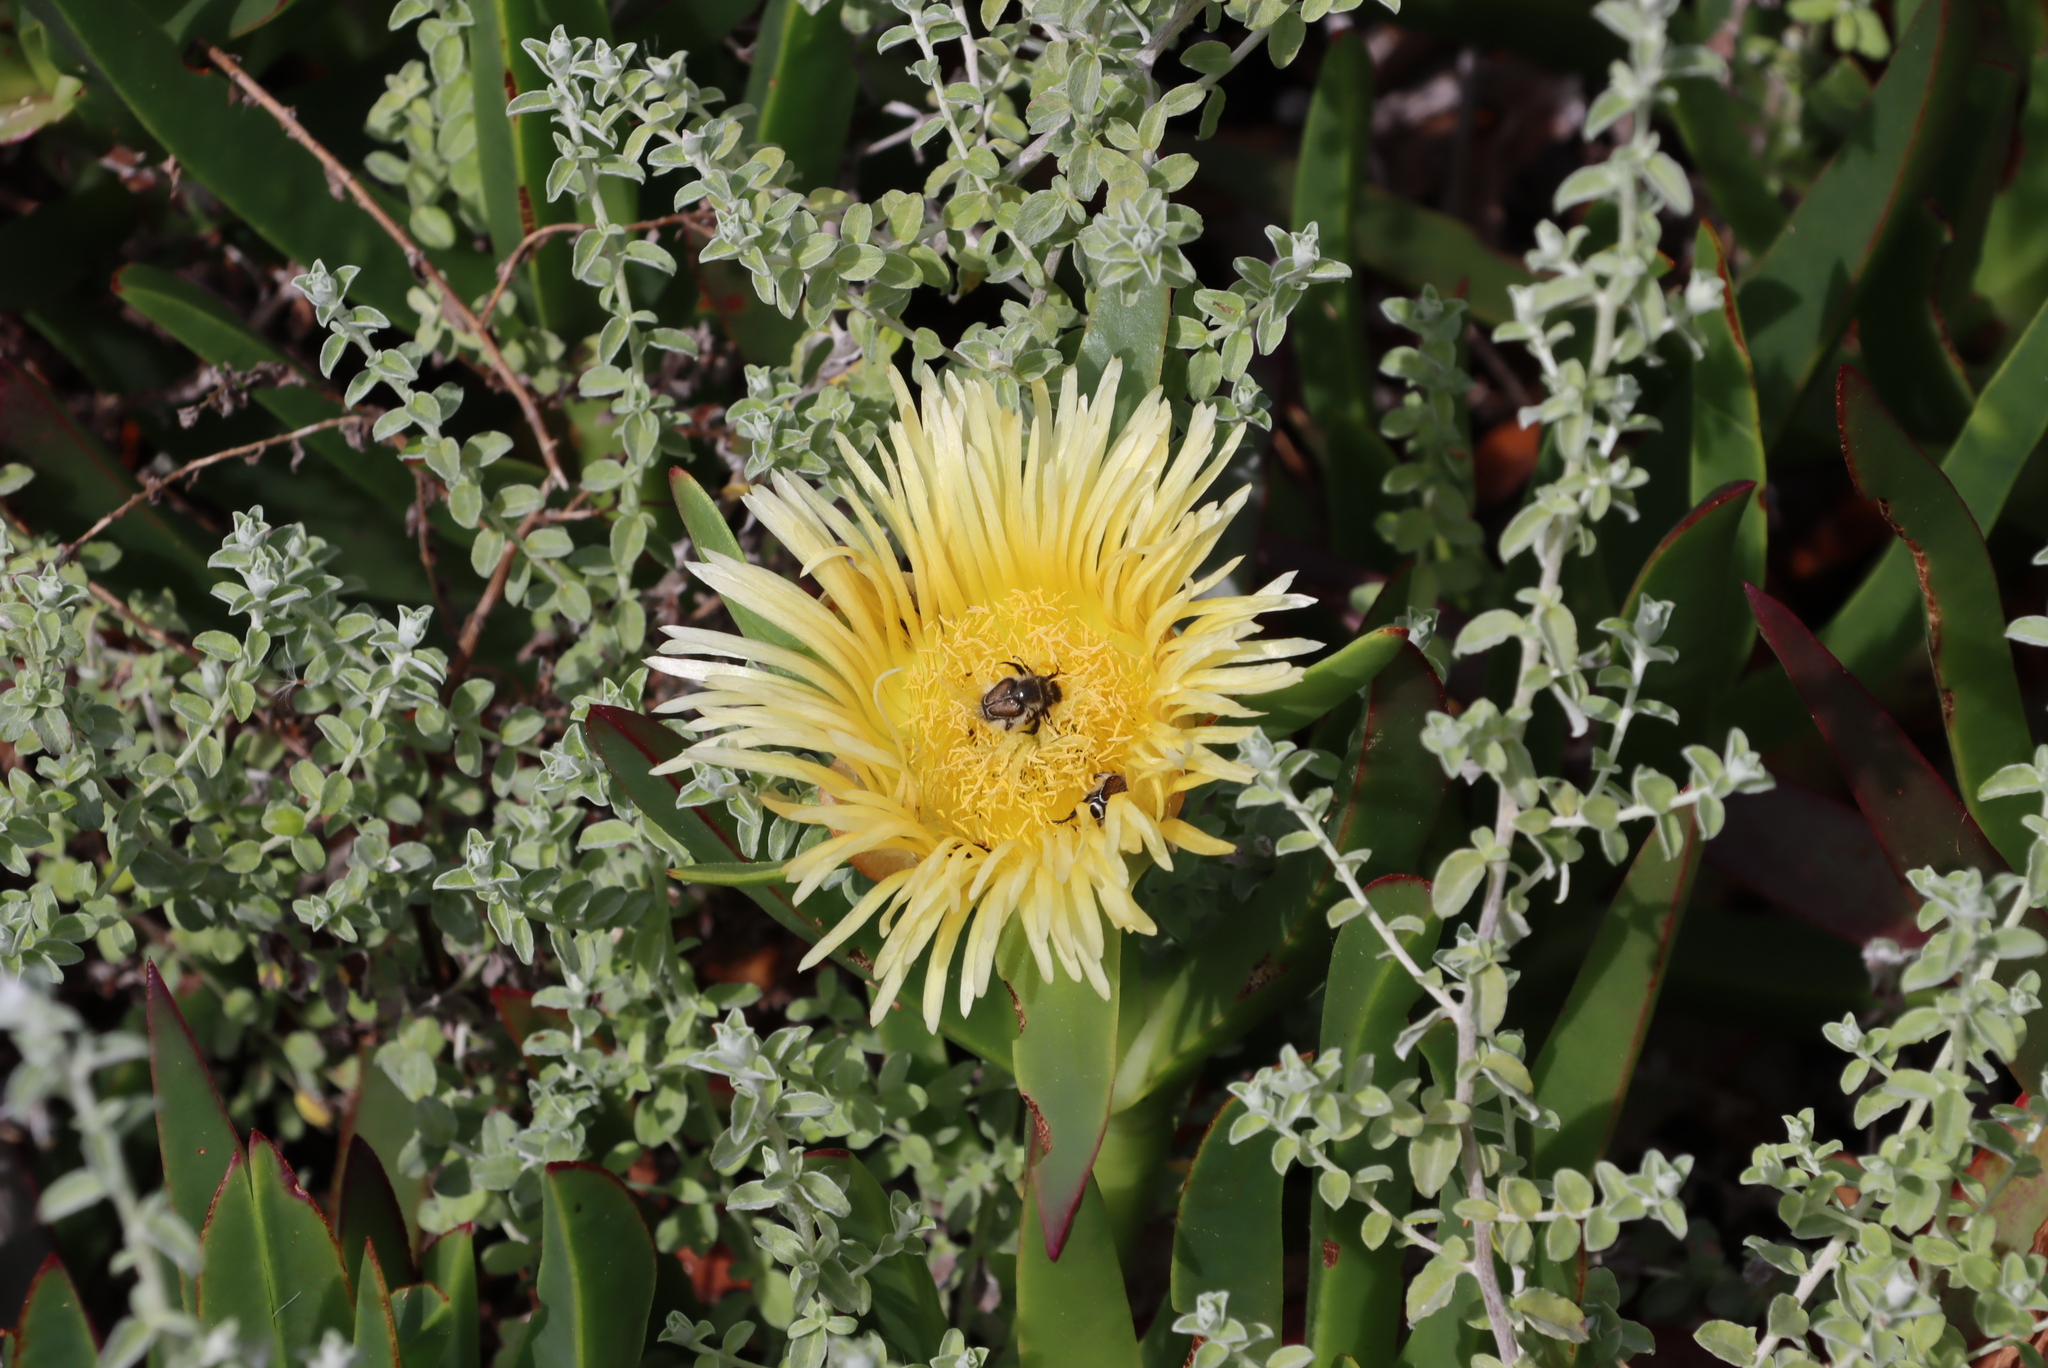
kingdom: Plantae
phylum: Tracheophyta
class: Magnoliopsida
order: Caryophyllales
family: Aizoaceae
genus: Carpobrotus
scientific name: Carpobrotus edulis
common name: Hottentot-fig
